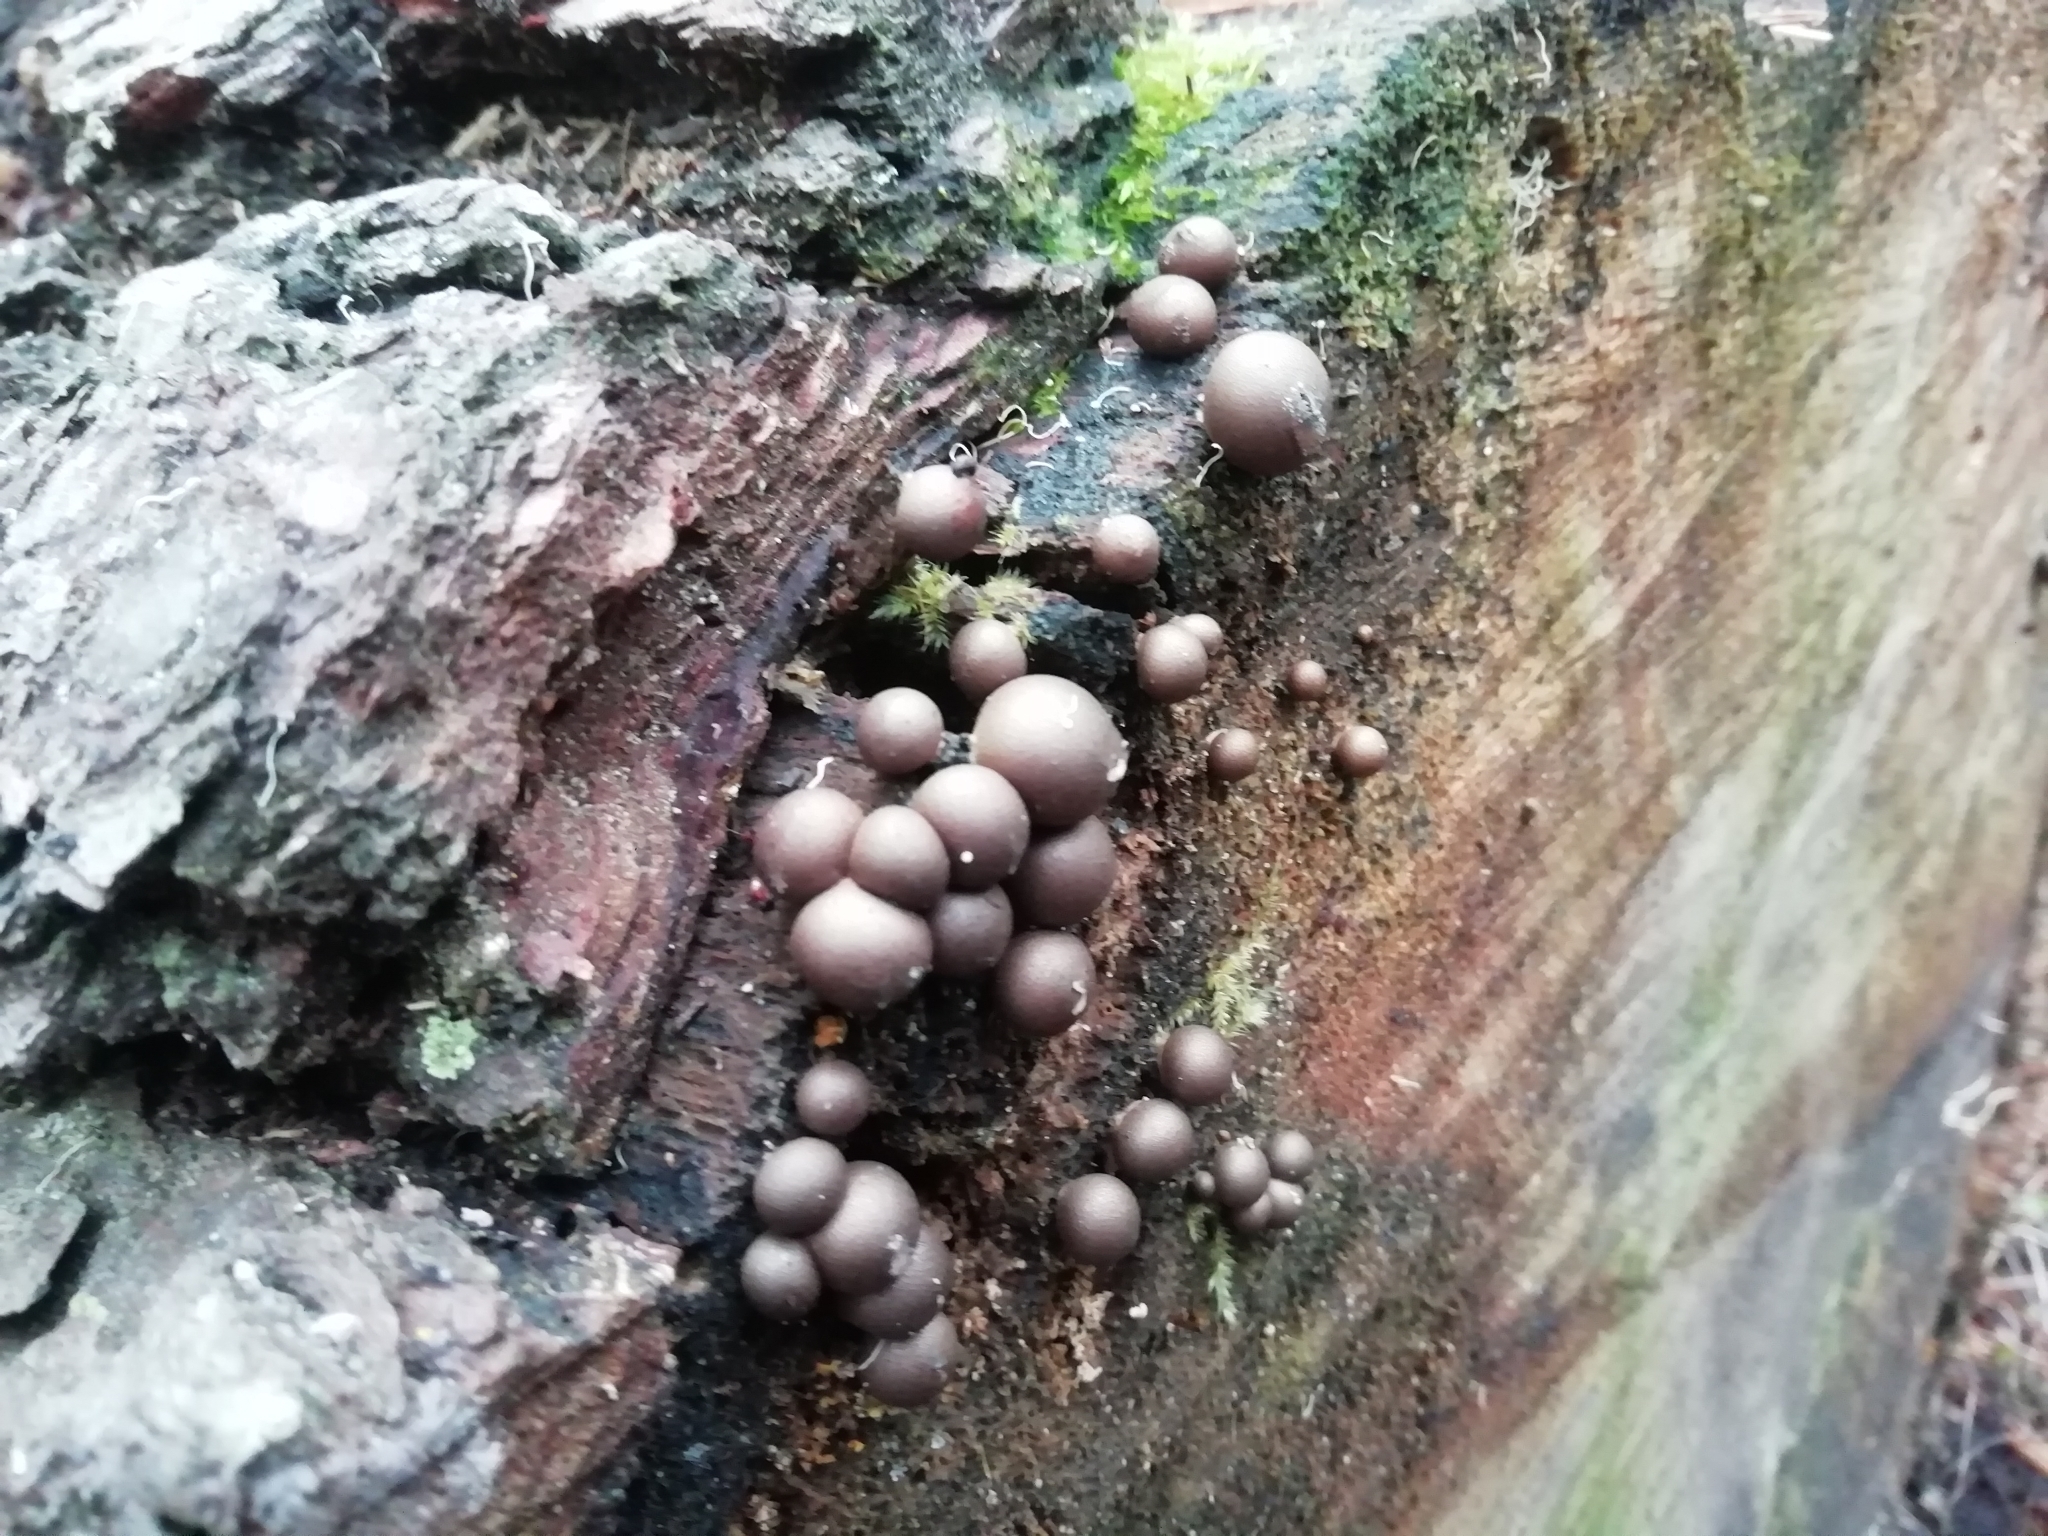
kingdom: Protozoa
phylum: Mycetozoa
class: Myxomycetes
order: Cribrariales
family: Tubiferaceae
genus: Lycogala
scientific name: Lycogala epidendrum
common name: Wolf's milk
